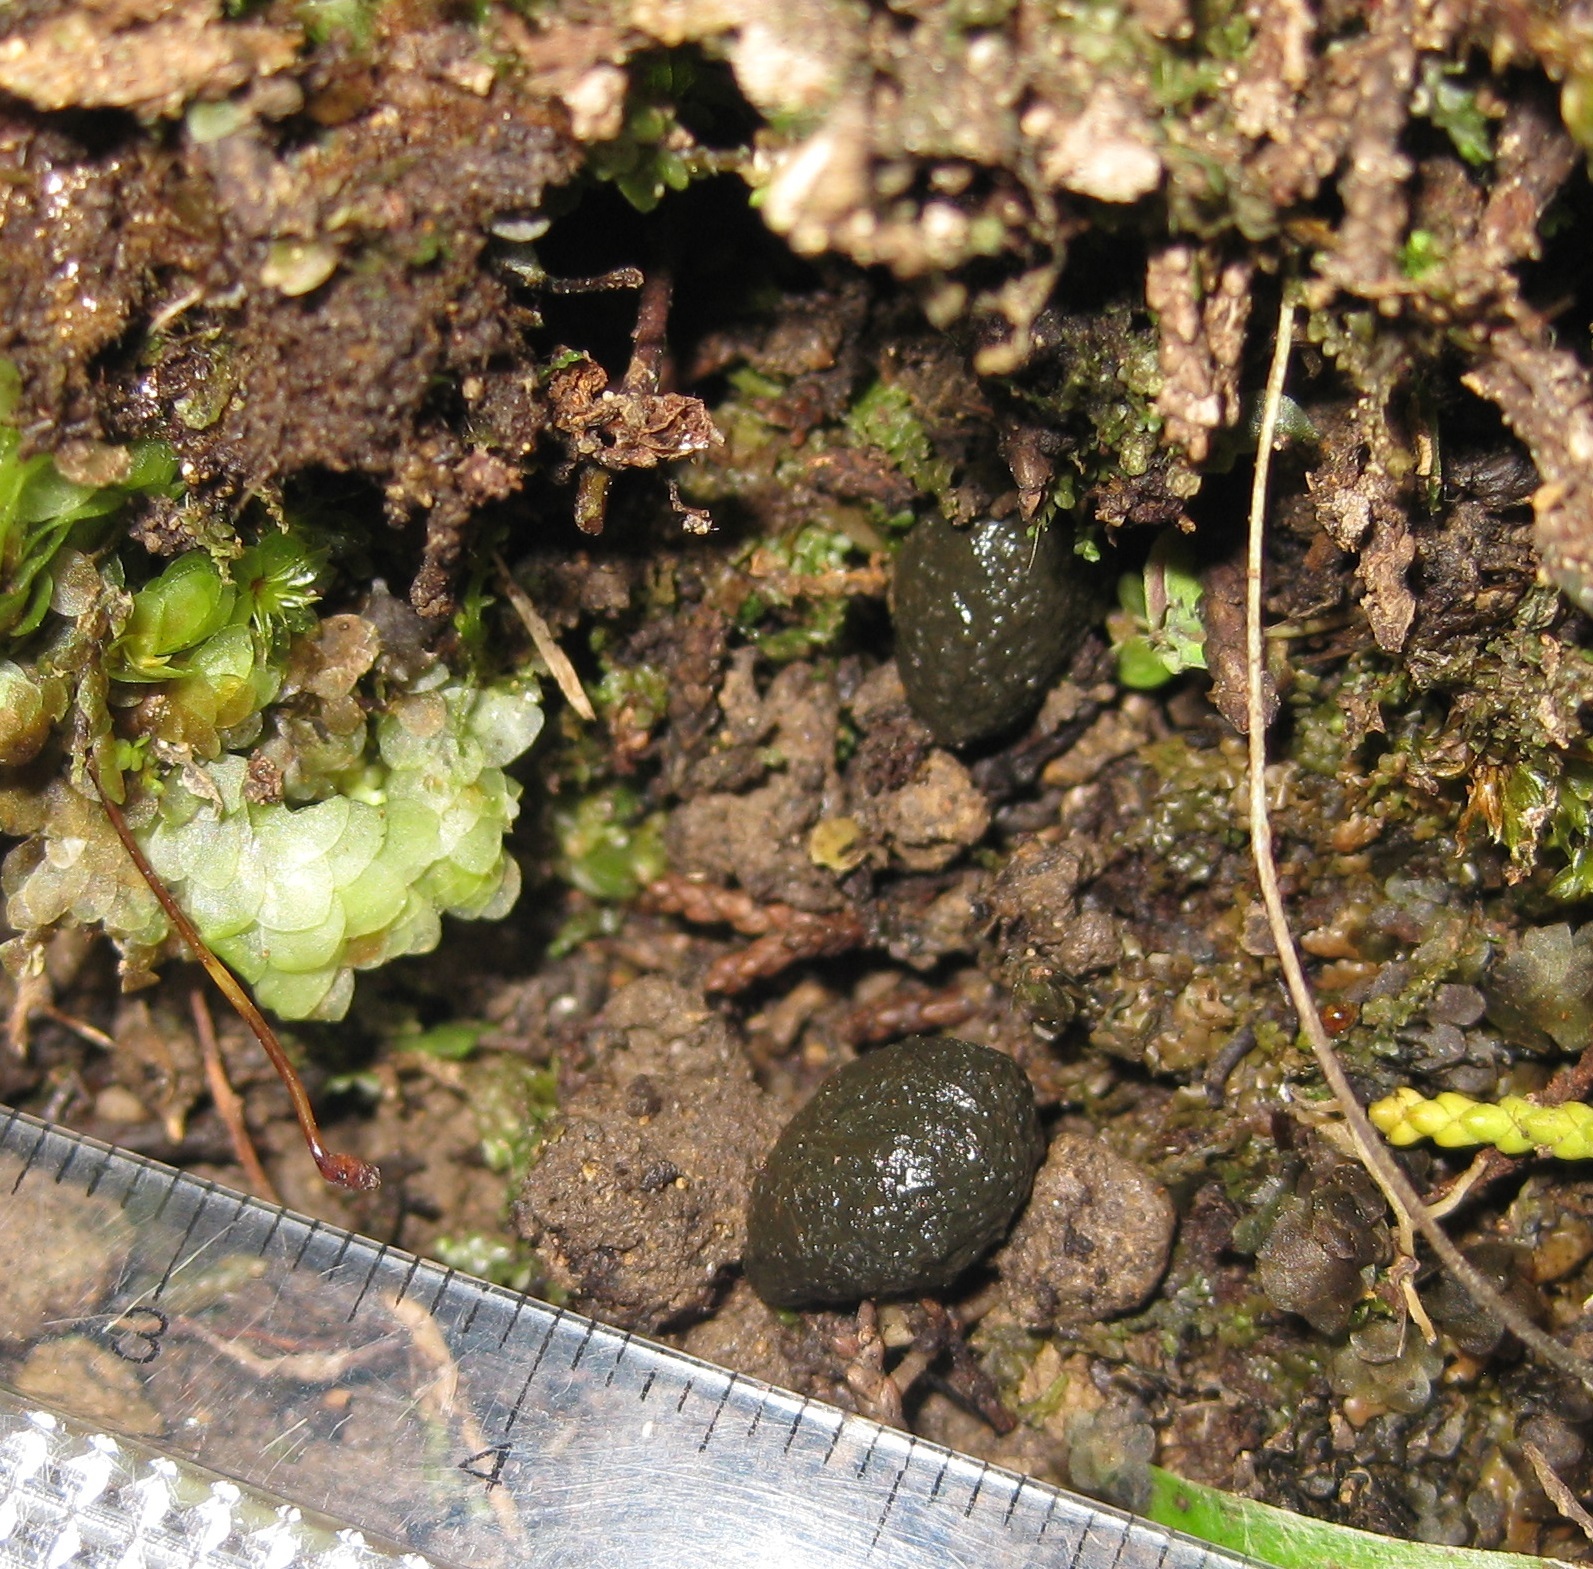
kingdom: Animalia
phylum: Chordata
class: Mammalia
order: Lagomorpha
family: Leporidae
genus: Oryctolagus
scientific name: Oryctolagus cuniculus
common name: European rabbit
